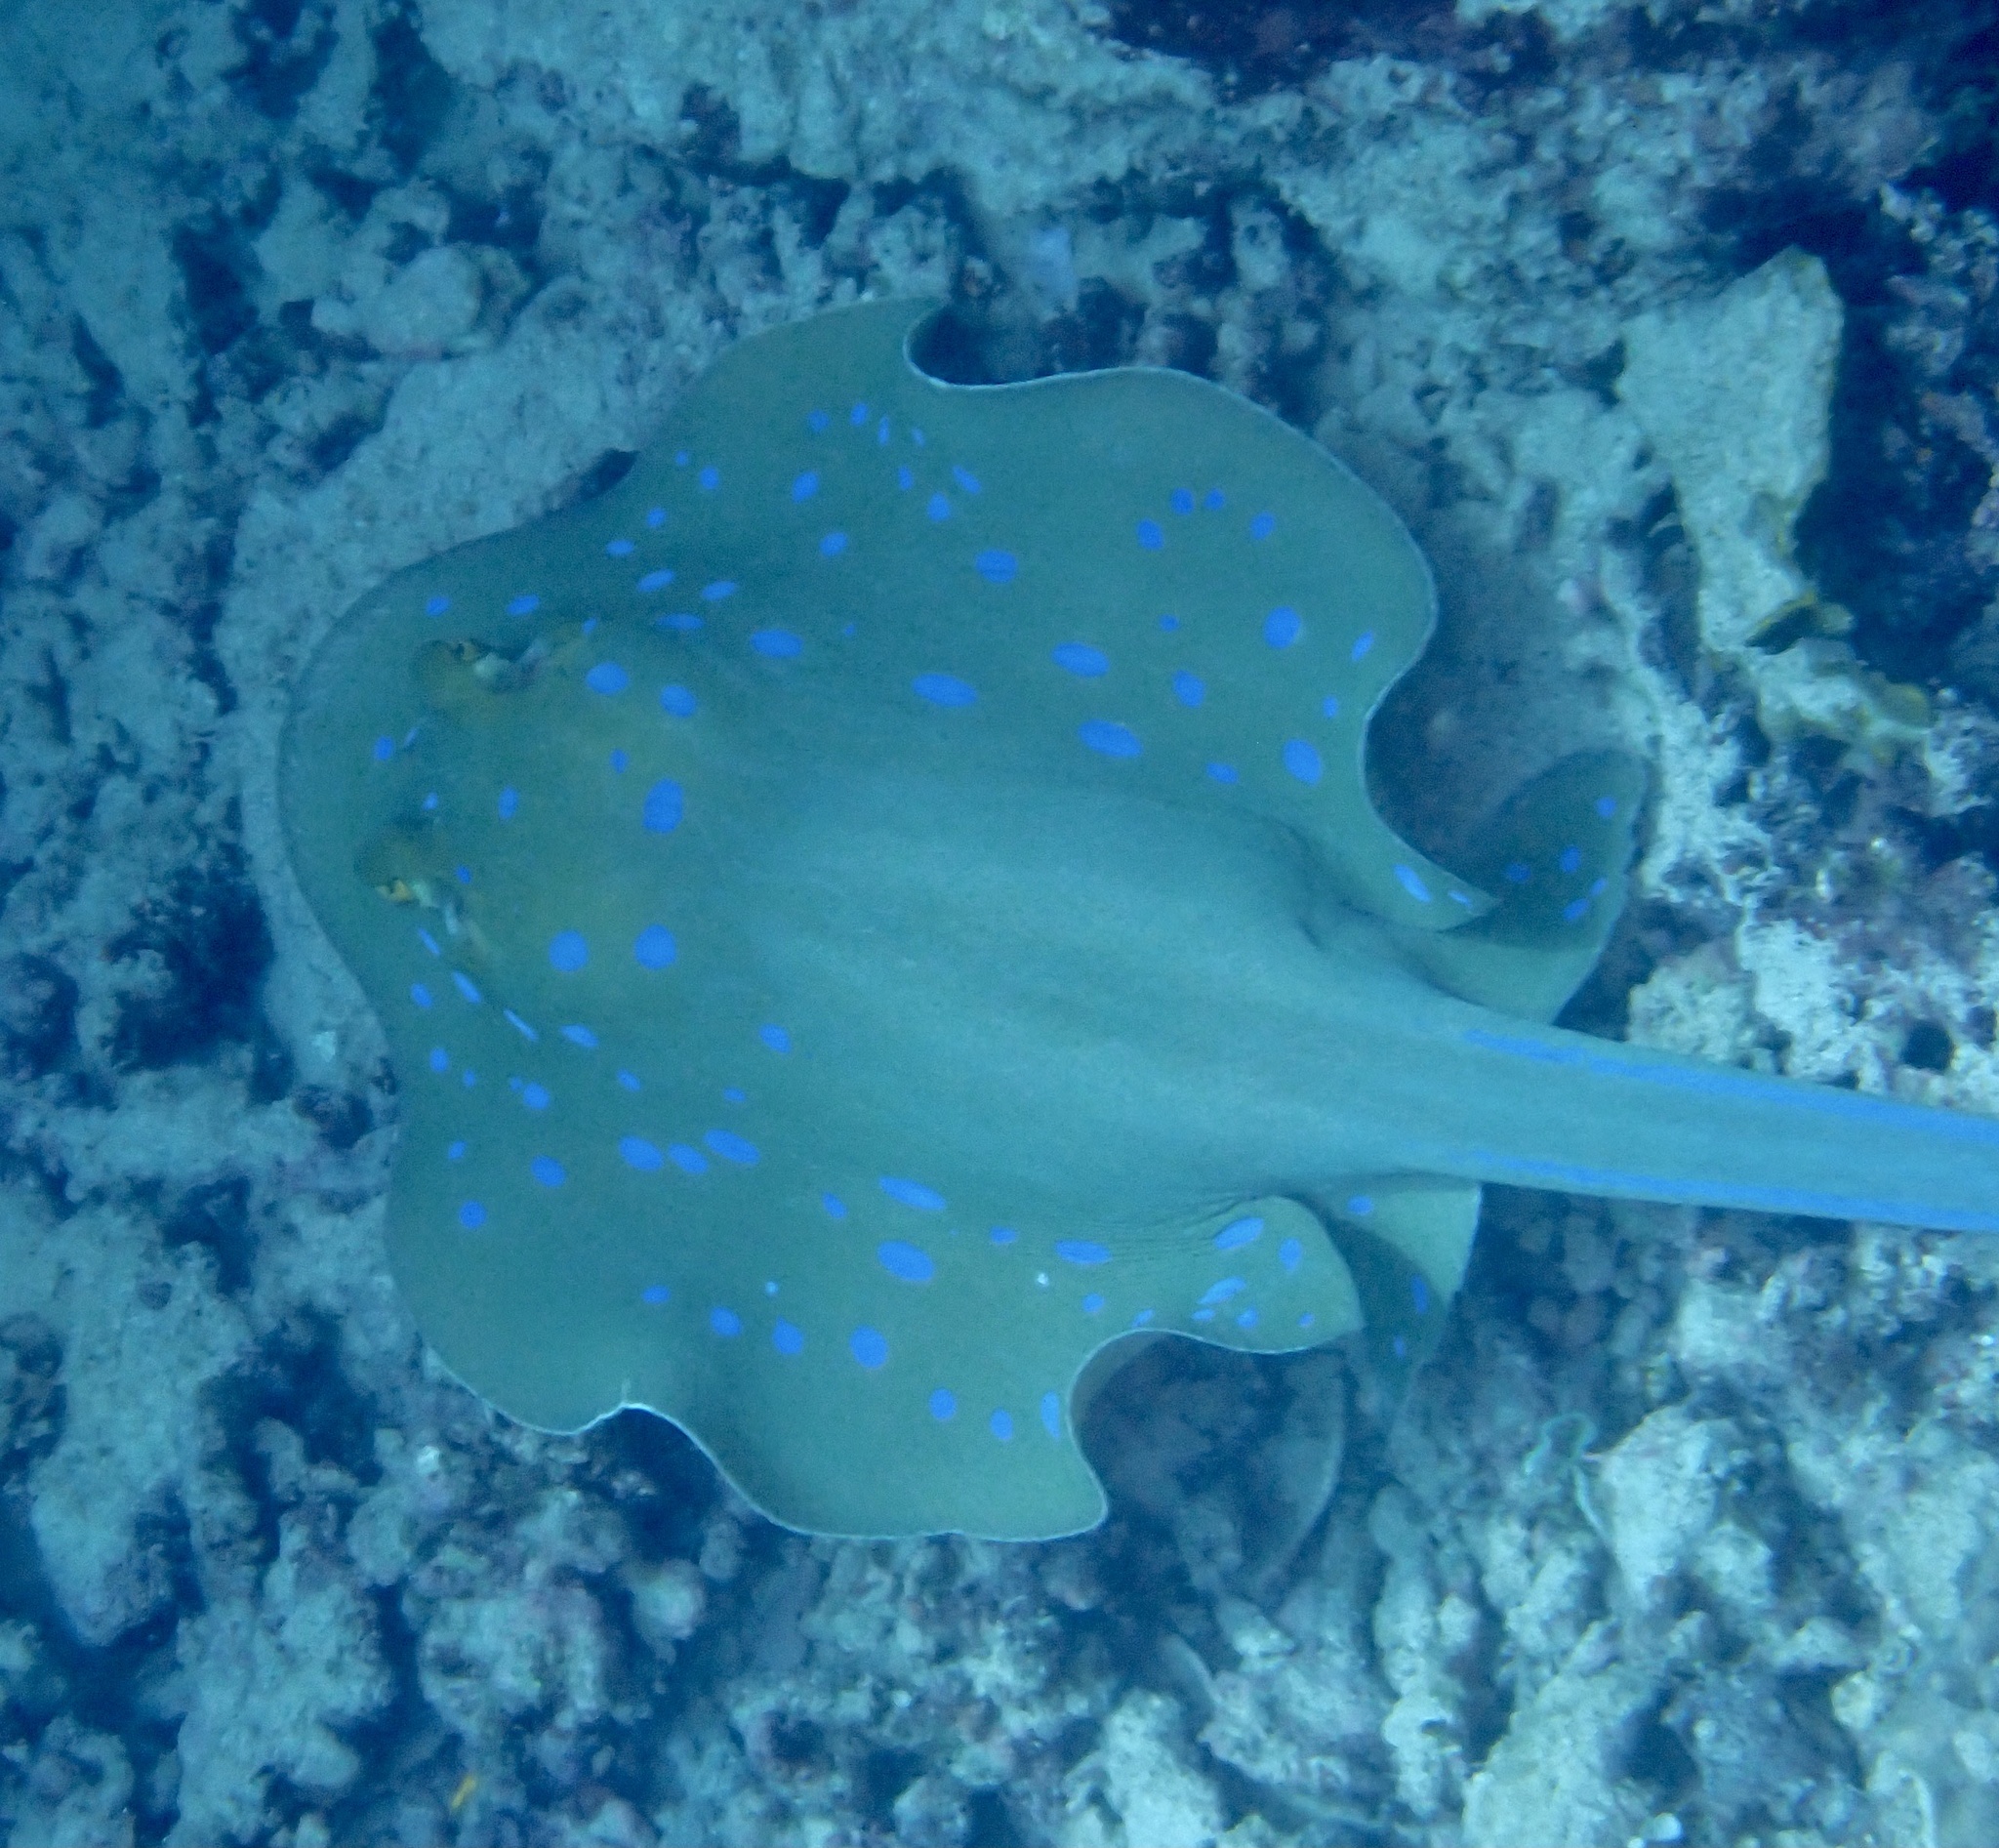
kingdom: Animalia
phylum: Chordata
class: Elasmobranchii
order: Myliobatiformes
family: Dasyatidae
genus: Taeniura
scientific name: Taeniura lymma
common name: Bluespotted ribbontail ray
